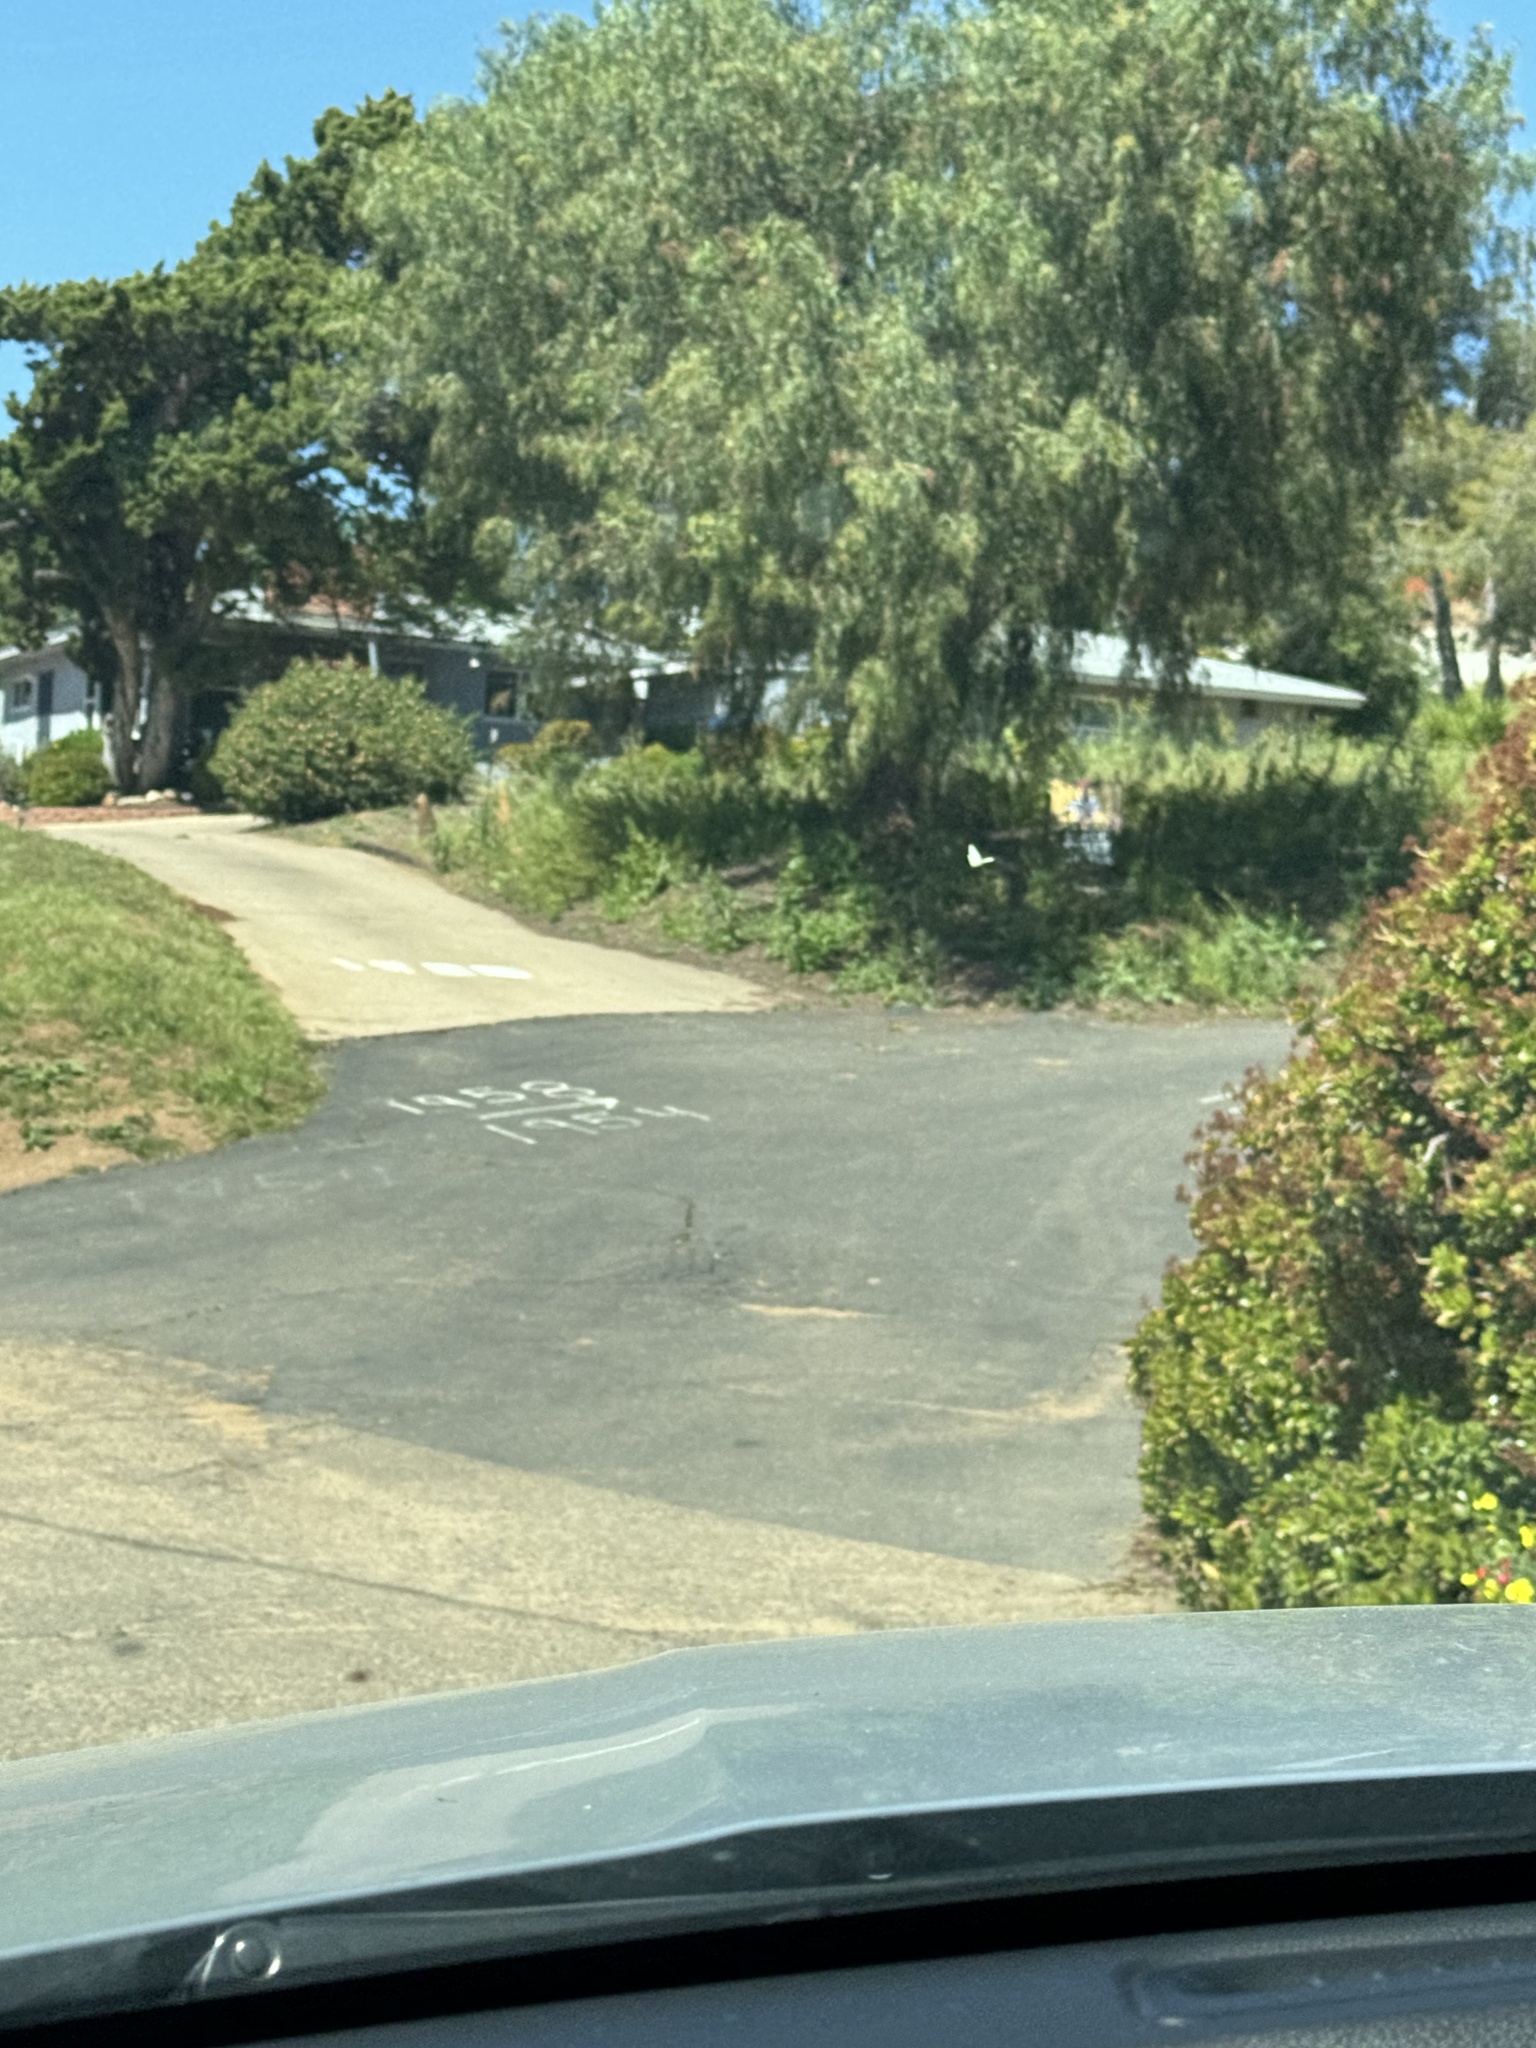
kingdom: Animalia
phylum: Arthropoda
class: Insecta
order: Lepidoptera
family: Pieridae
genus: Pieris
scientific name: Pieris rapae
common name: Small white
